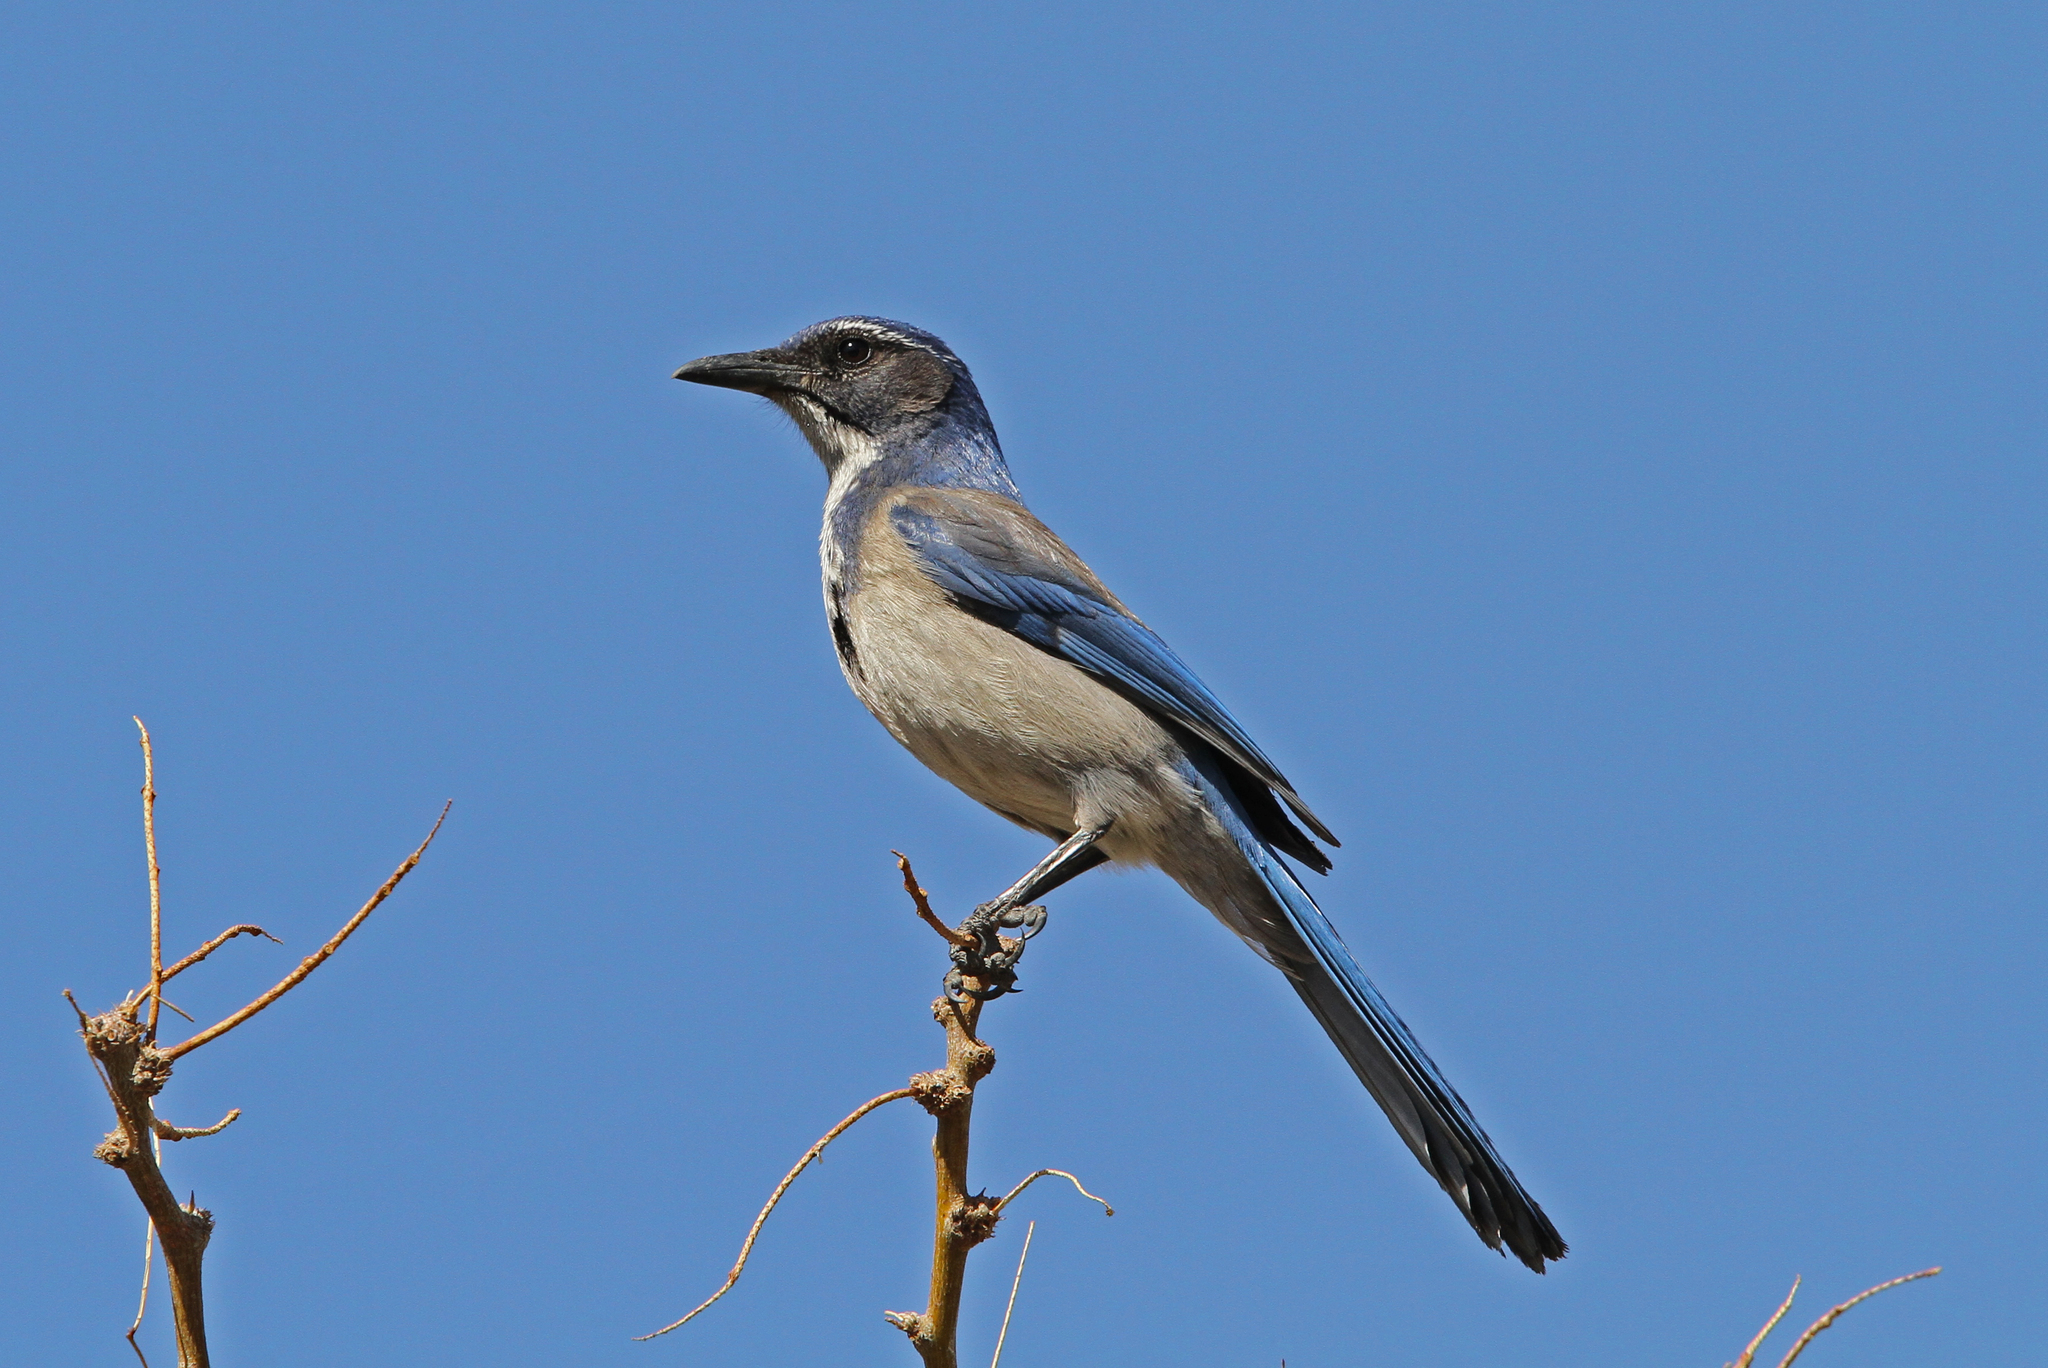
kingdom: Animalia
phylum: Chordata
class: Aves
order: Passeriformes
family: Corvidae
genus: Aphelocoma
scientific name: Aphelocoma californica
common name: California scrub-jay
